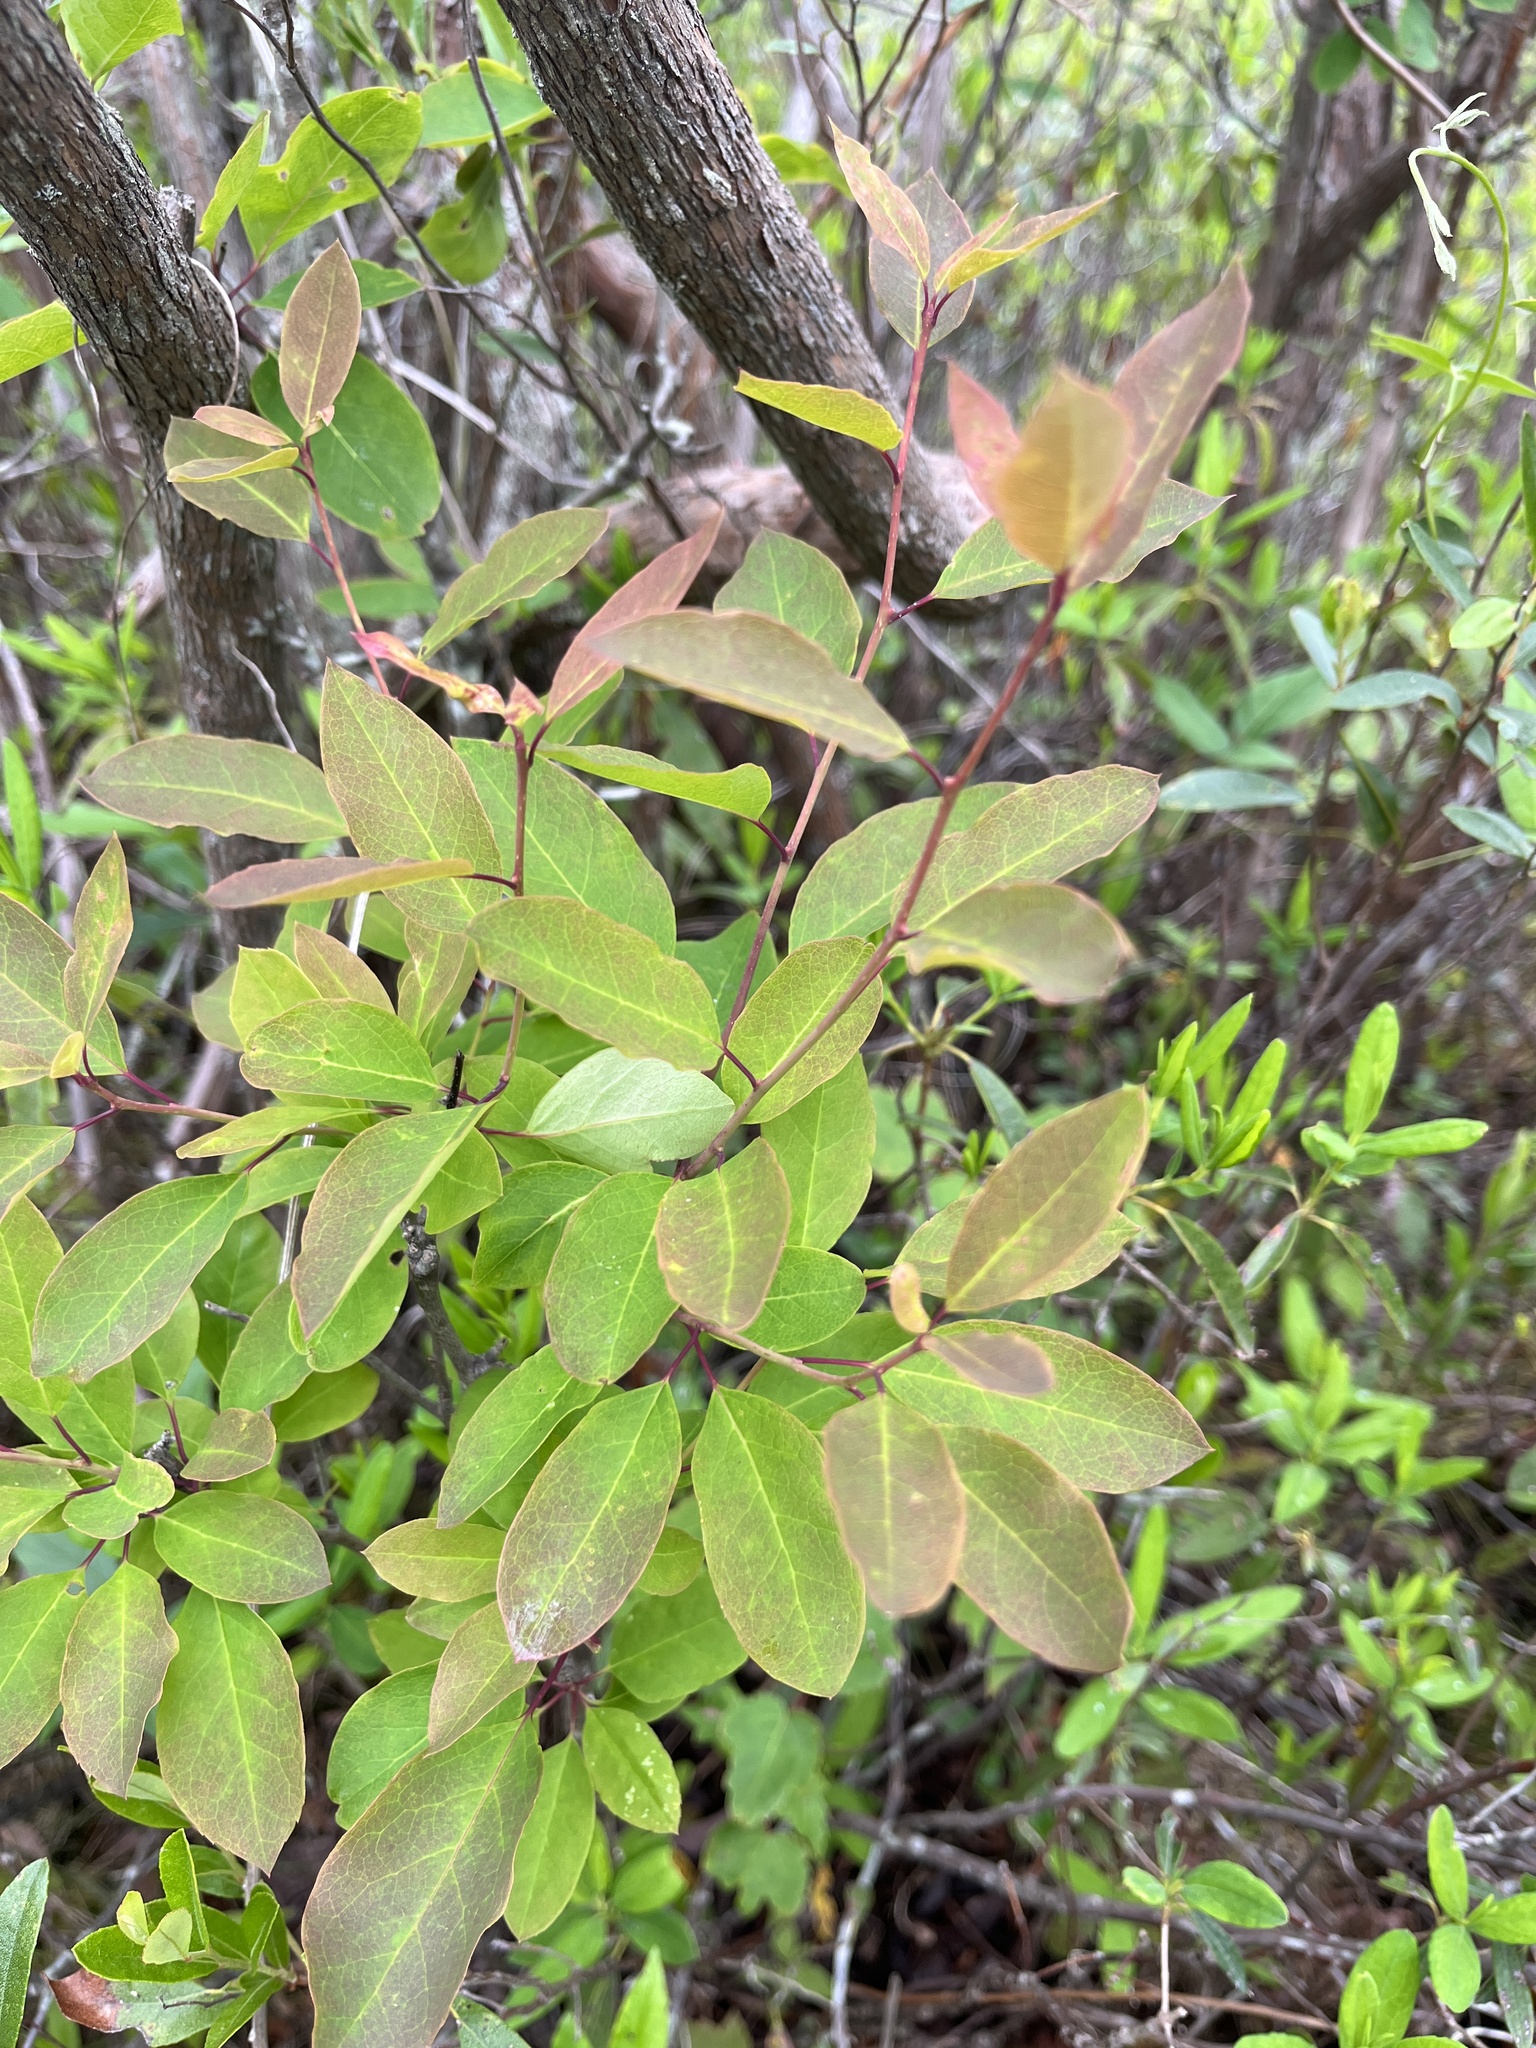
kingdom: Plantae
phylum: Tracheophyta
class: Magnoliopsida
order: Aquifoliales
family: Aquifoliaceae
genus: Ilex
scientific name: Ilex mucronata
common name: Catberry
